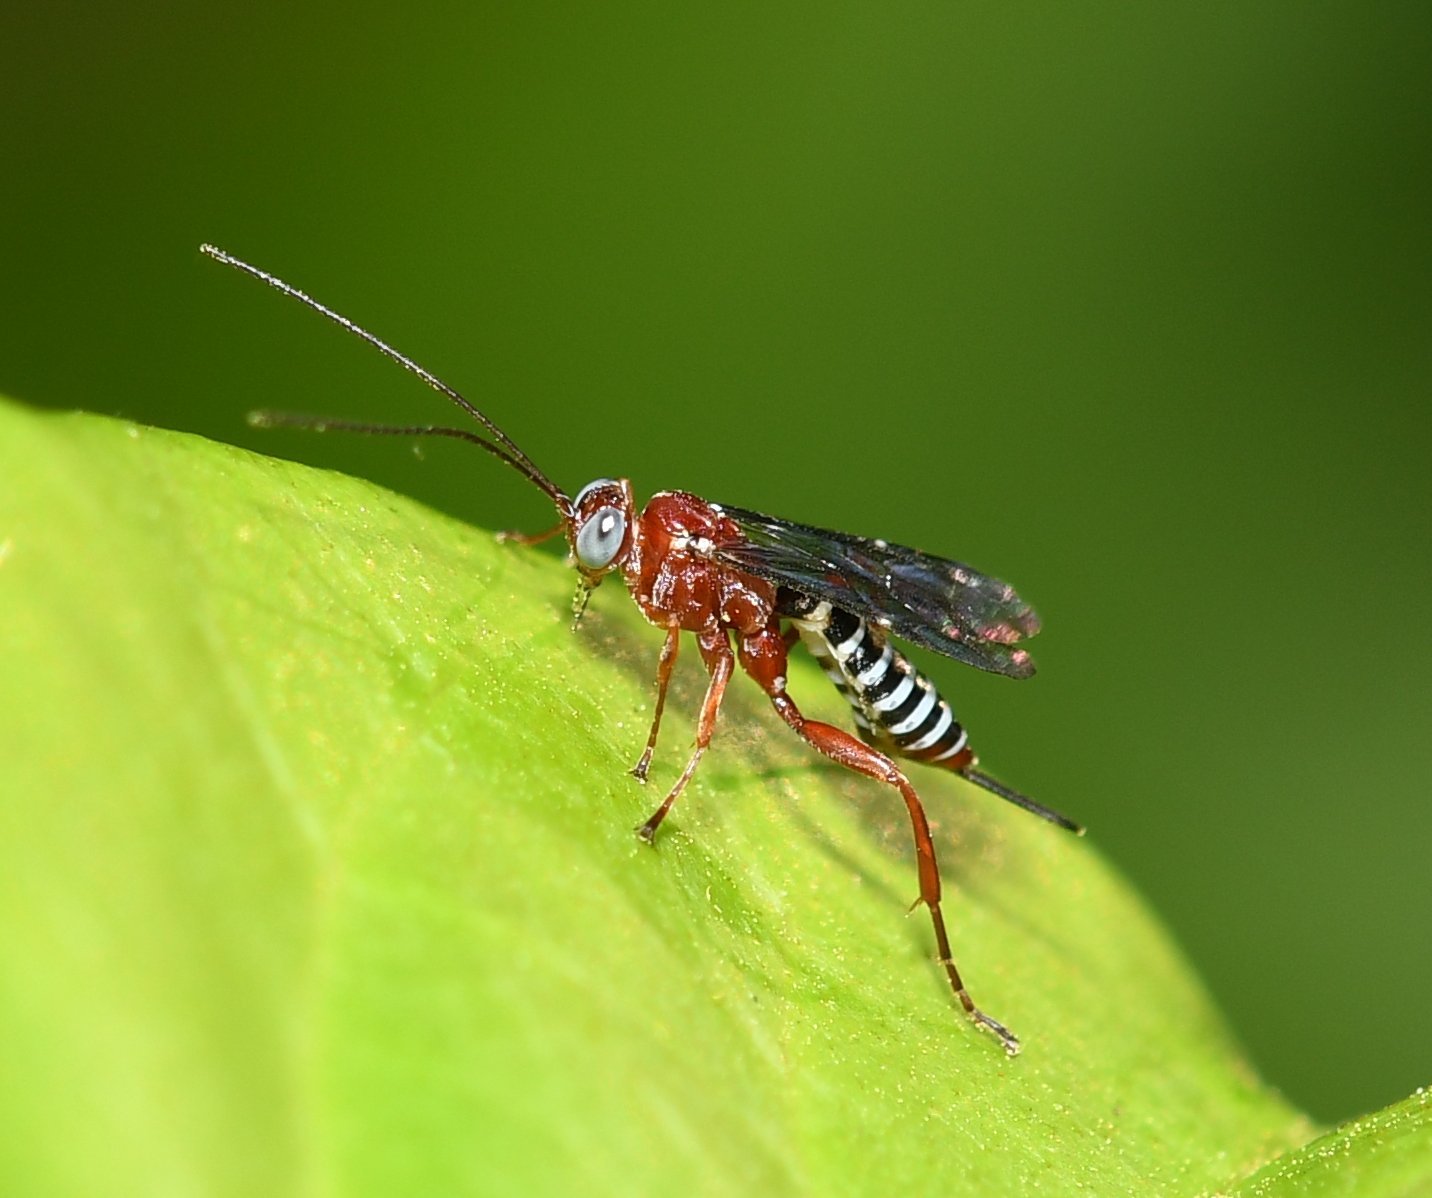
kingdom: Animalia
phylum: Arthropoda
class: Insecta
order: Hymenoptera
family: Ichneumonidae
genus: Pimpla
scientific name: Pimpla marginella
